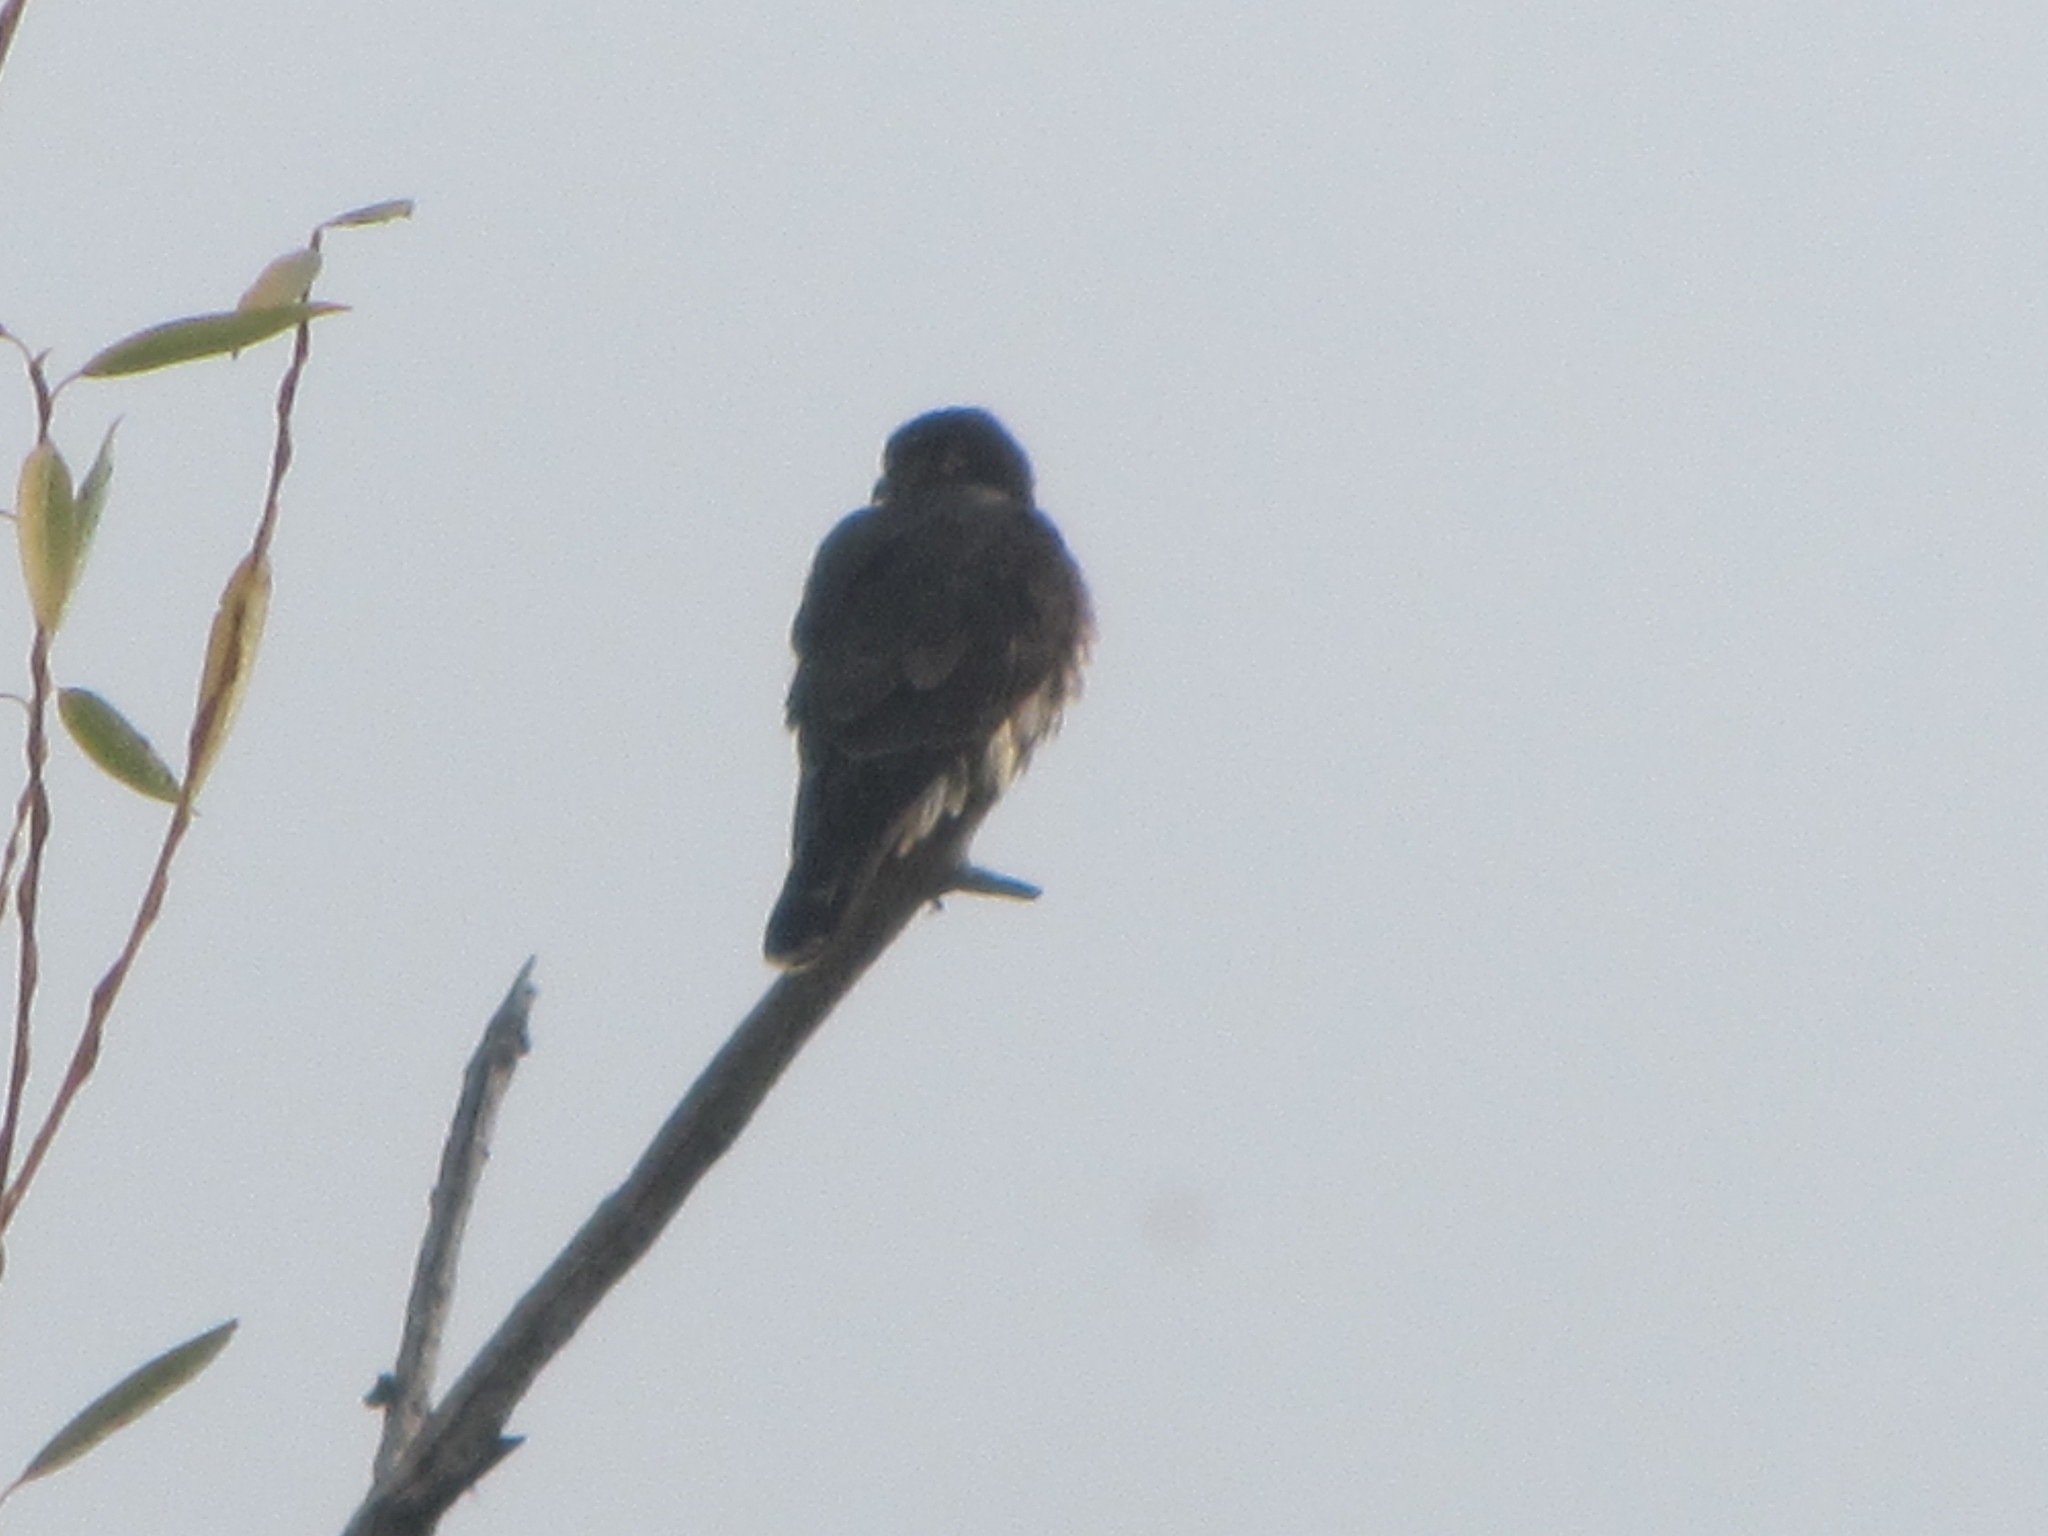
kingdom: Animalia
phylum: Chordata
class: Aves
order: Falconiformes
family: Falconidae
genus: Falco
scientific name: Falco columbarius
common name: Merlin
